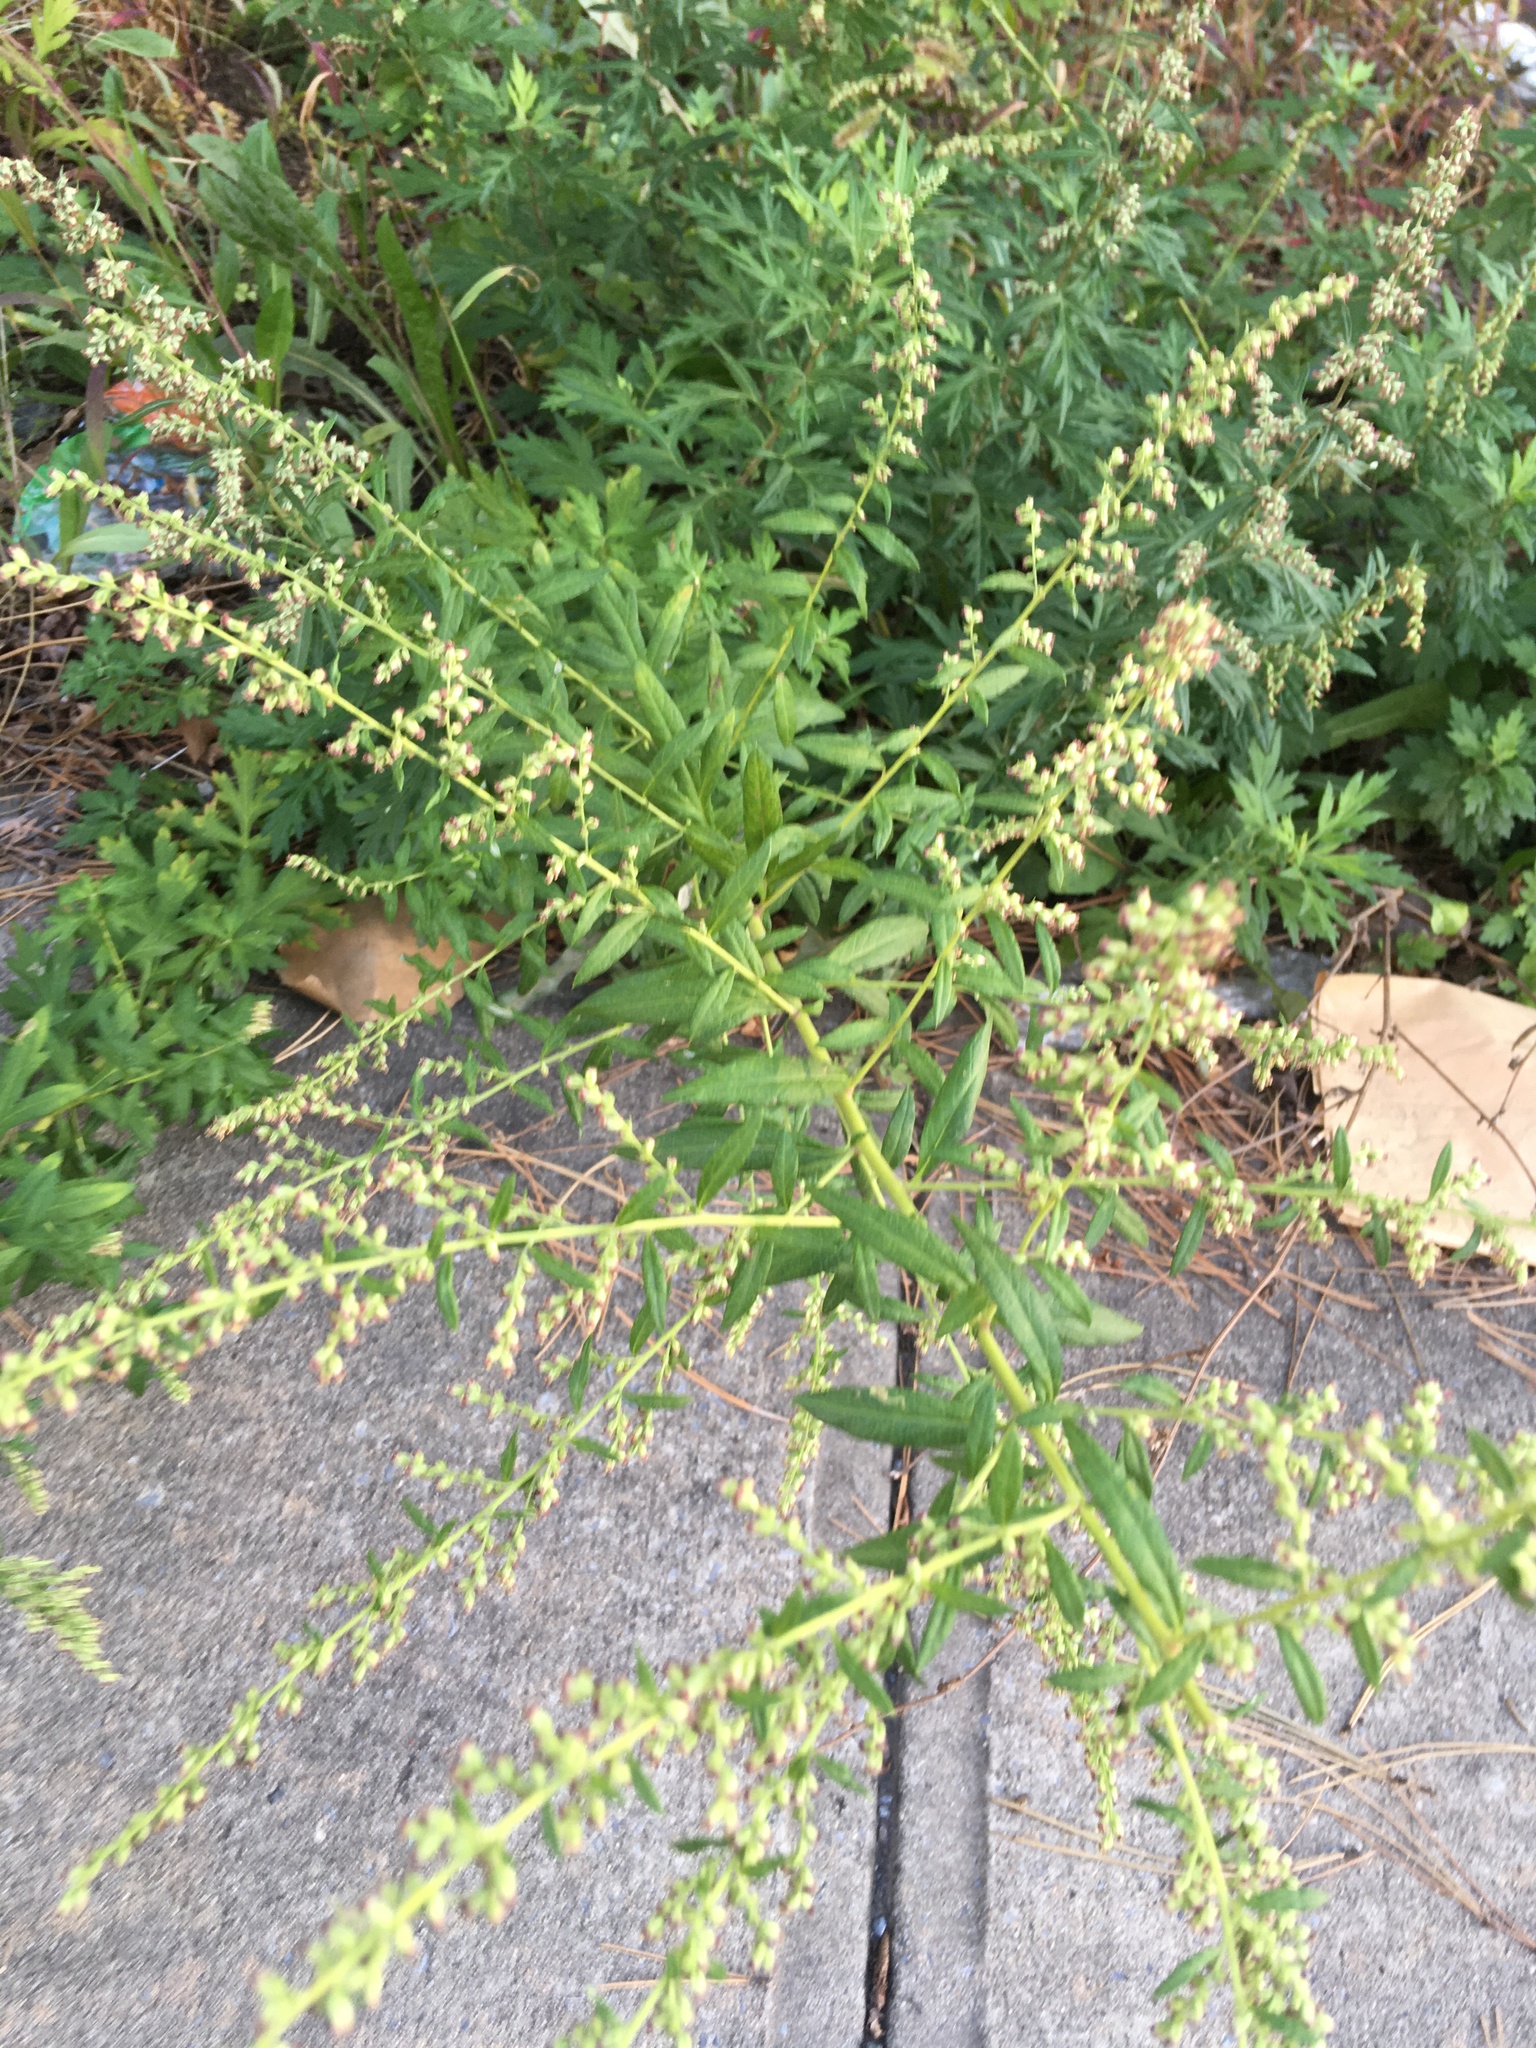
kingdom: Plantae
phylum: Tracheophyta
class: Magnoliopsida
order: Asterales
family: Asteraceae
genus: Artemisia
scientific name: Artemisia vulgaris
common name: Mugwort
